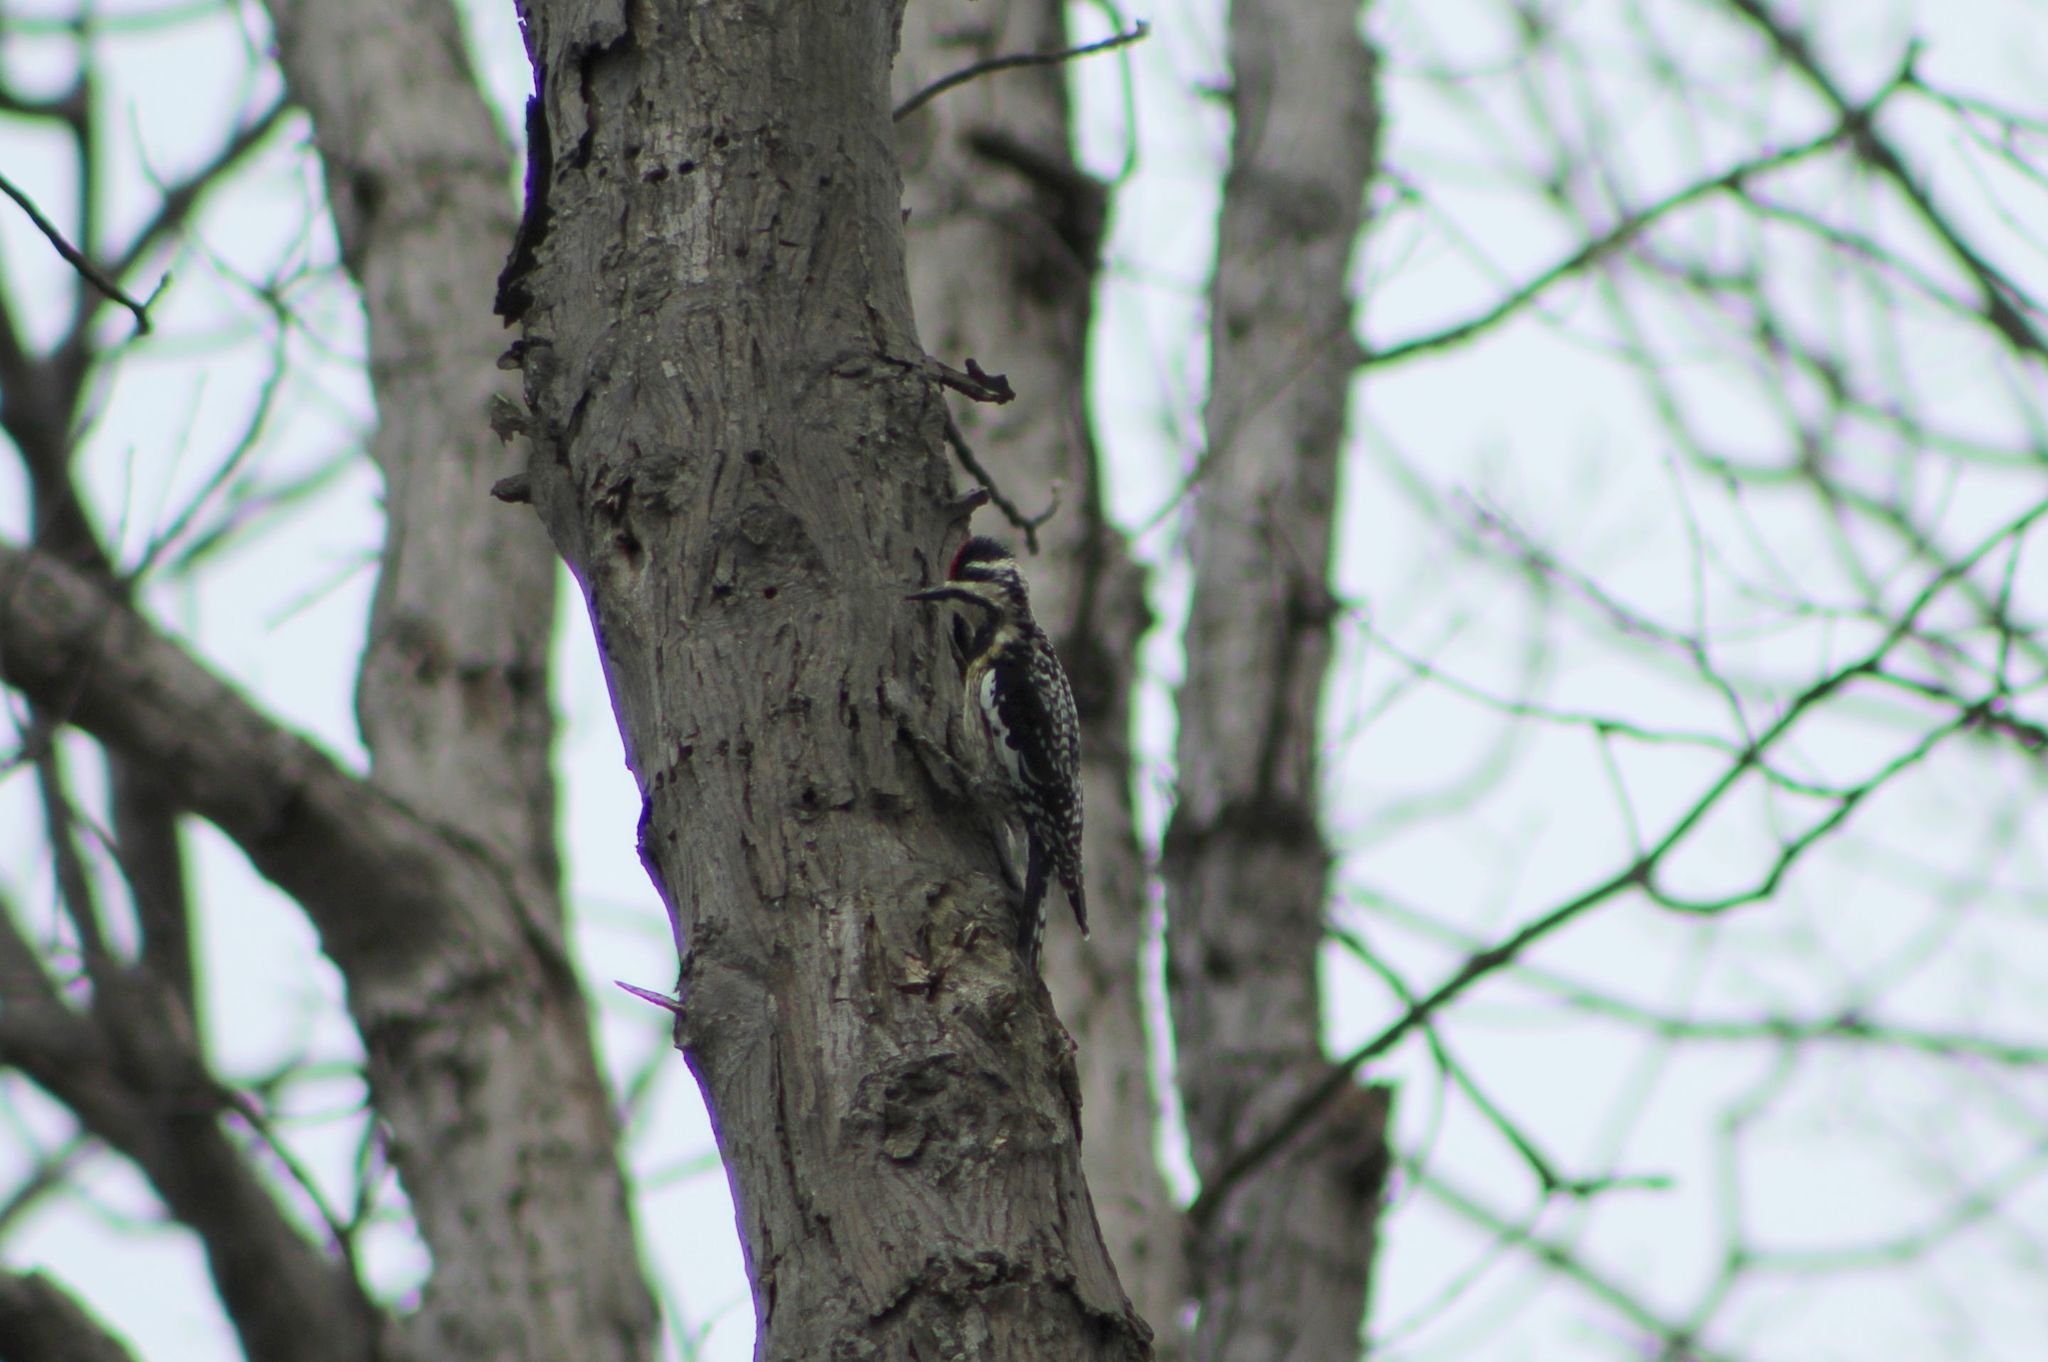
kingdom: Animalia
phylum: Chordata
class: Aves
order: Piciformes
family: Picidae
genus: Sphyrapicus
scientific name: Sphyrapicus varius
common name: Yellow-bellied sapsucker
